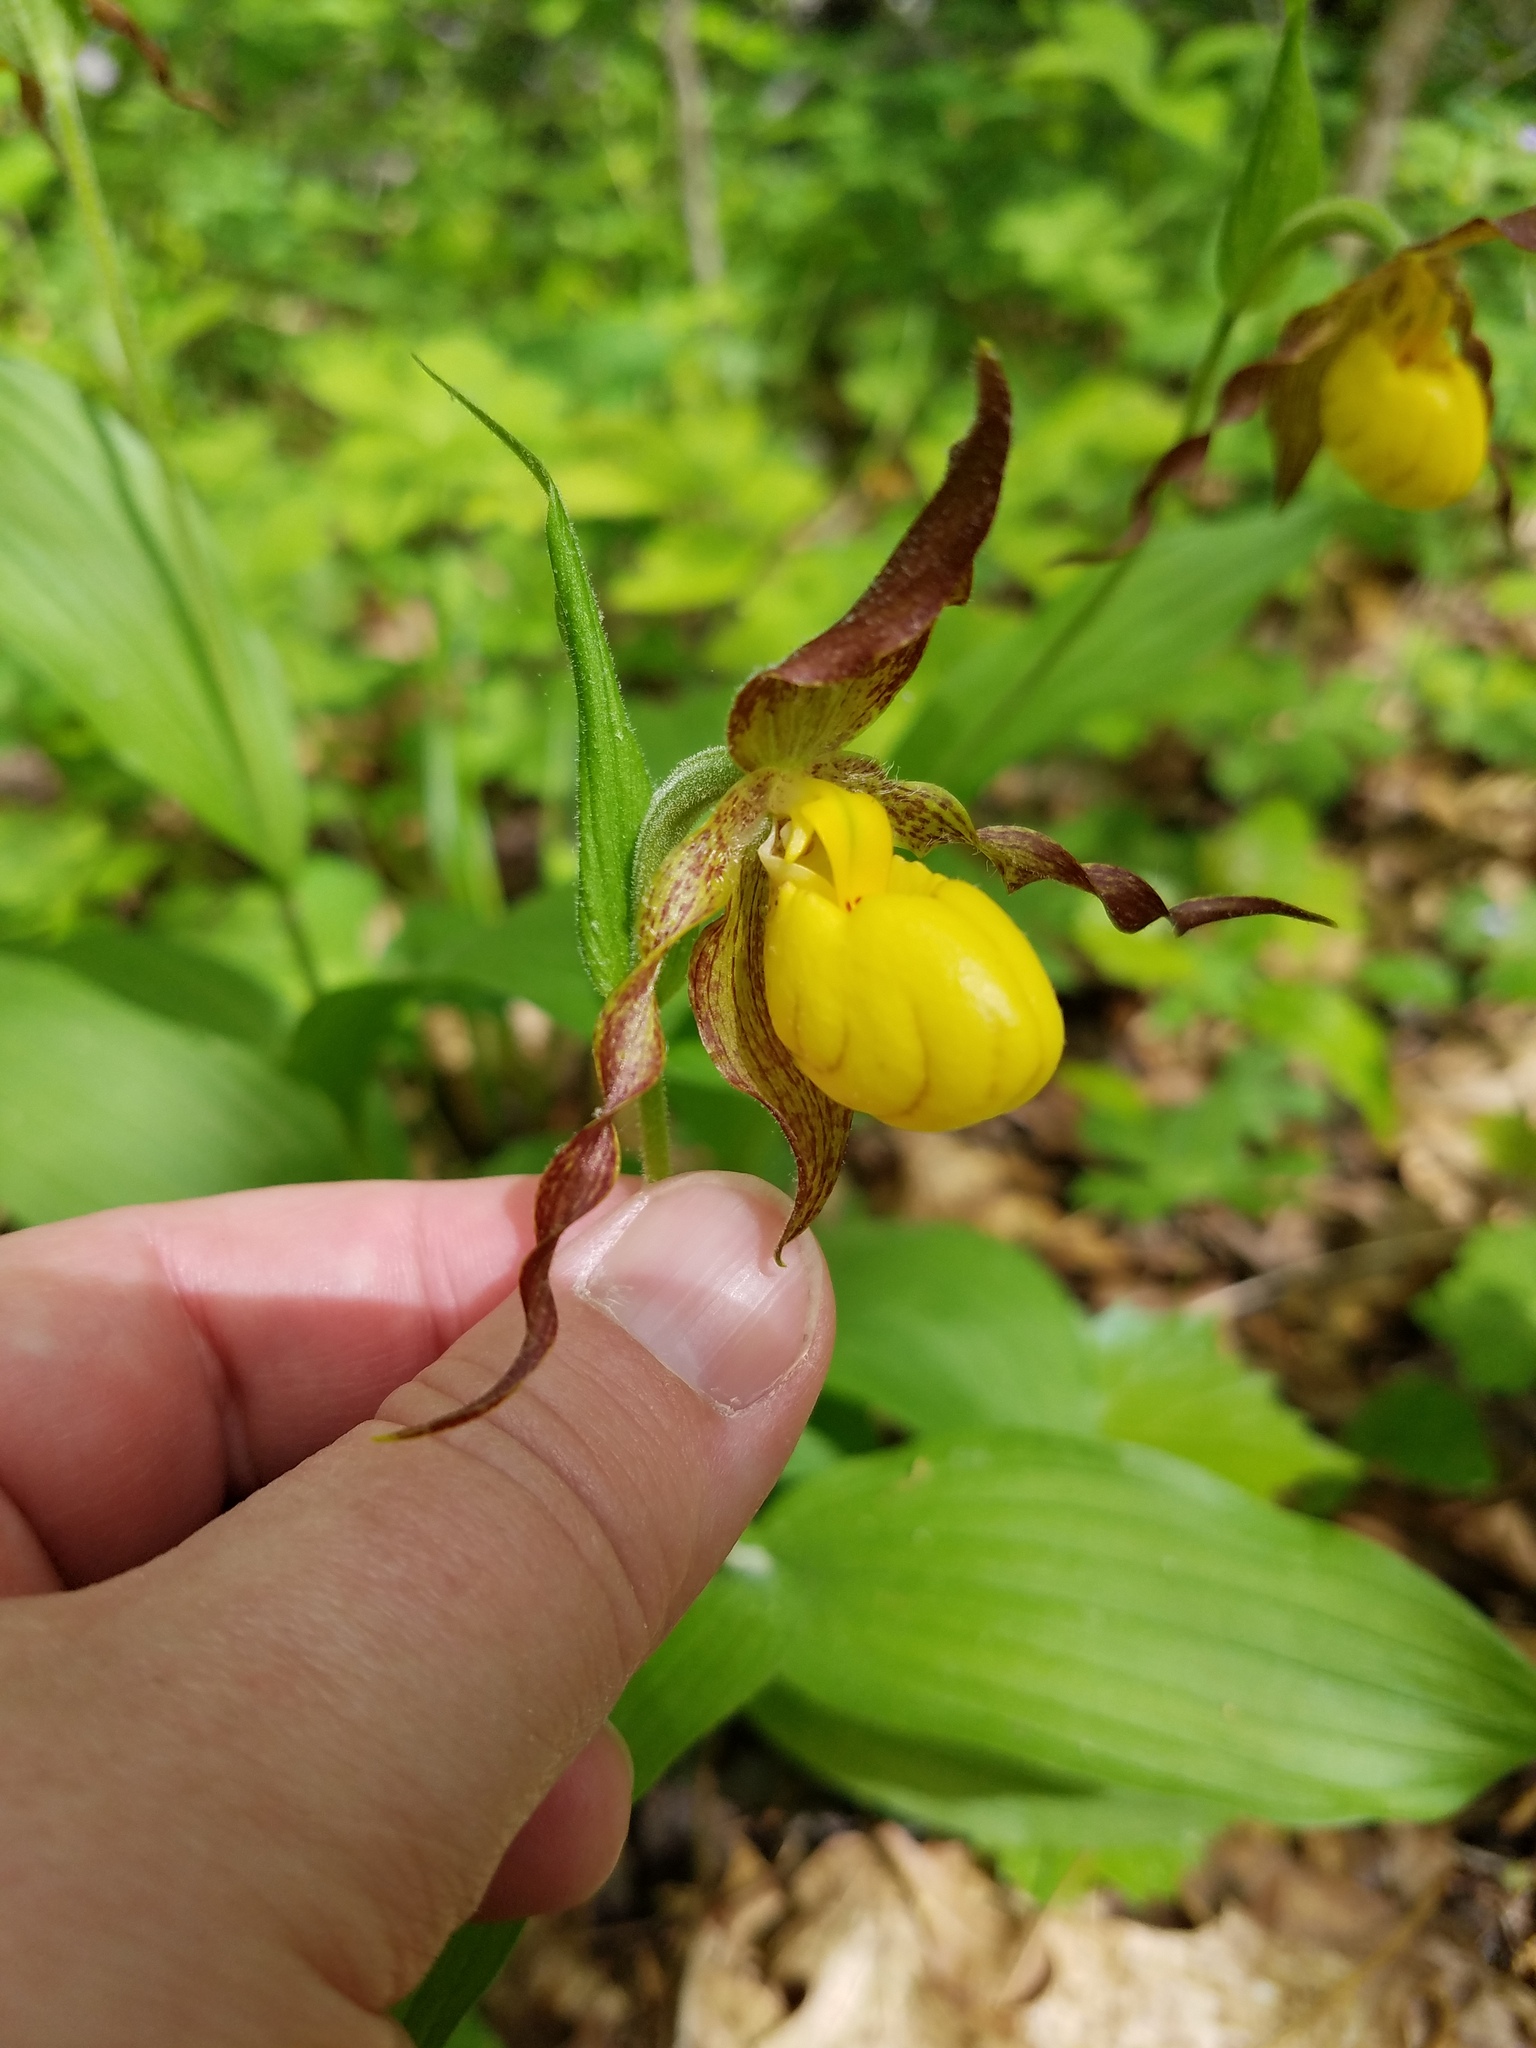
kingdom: Plantae
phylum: Tracheophyta
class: Liliopsida
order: Asparagales
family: Orchidaceae
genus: Cypripedium
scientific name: Cypripedium parviflorum
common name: American yellow lady's-slipper
